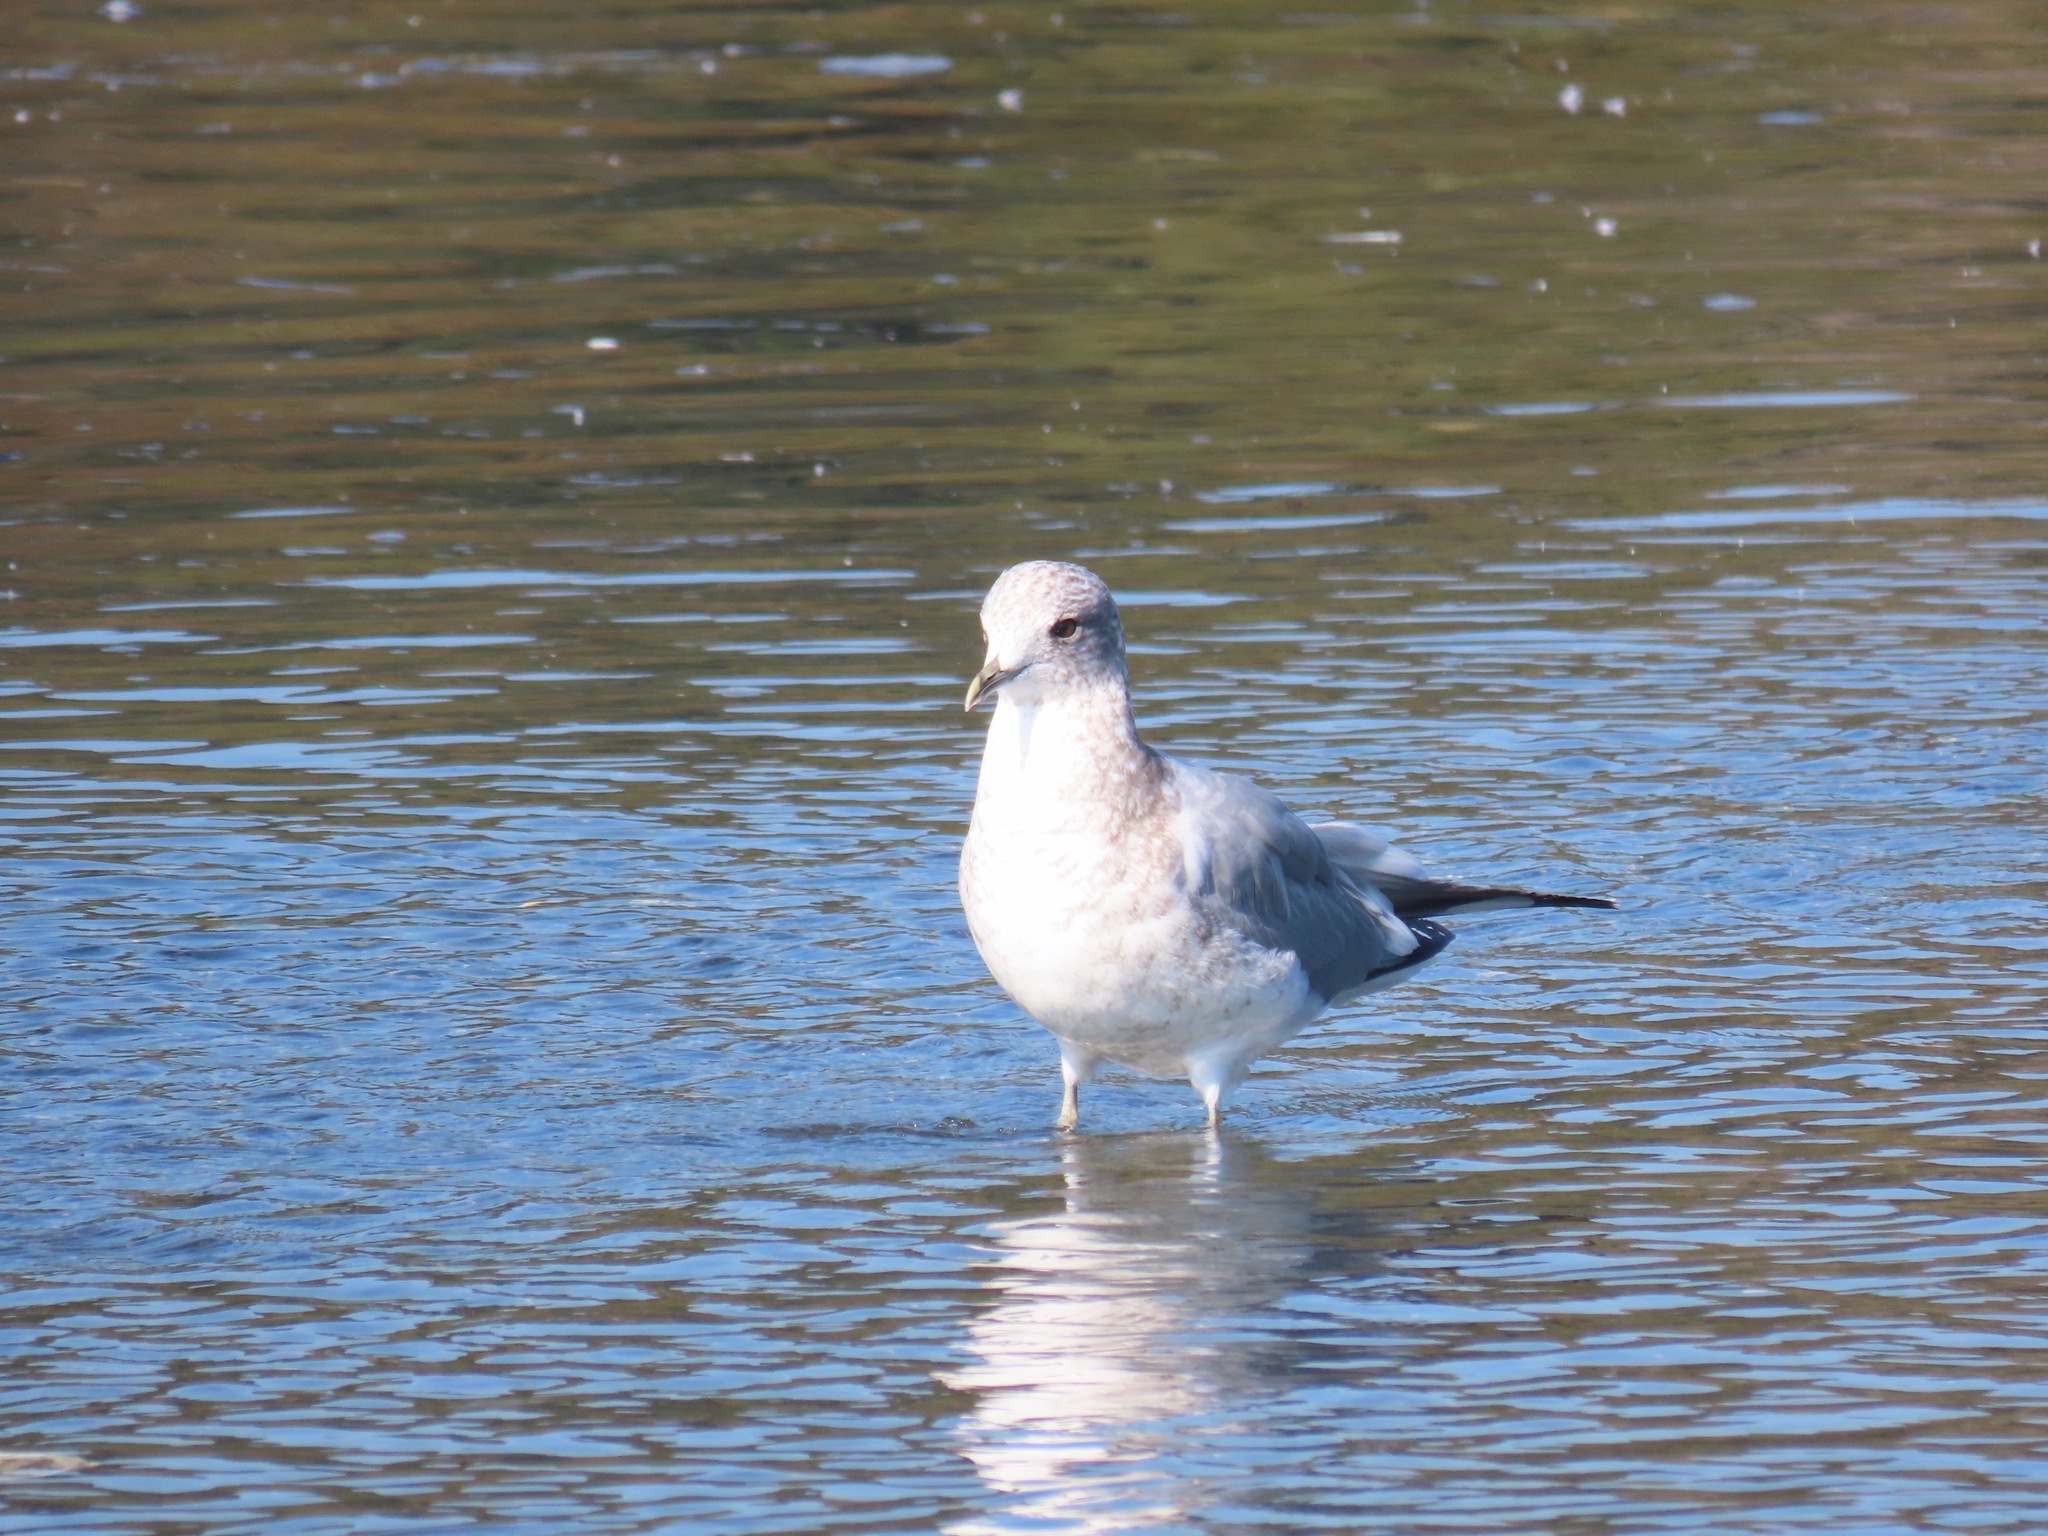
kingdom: Animalia
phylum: Chordata
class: Aves
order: Charadriiformes
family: Laridae
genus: Larus
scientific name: Larus brachyrhynchus
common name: Short-billed gull
